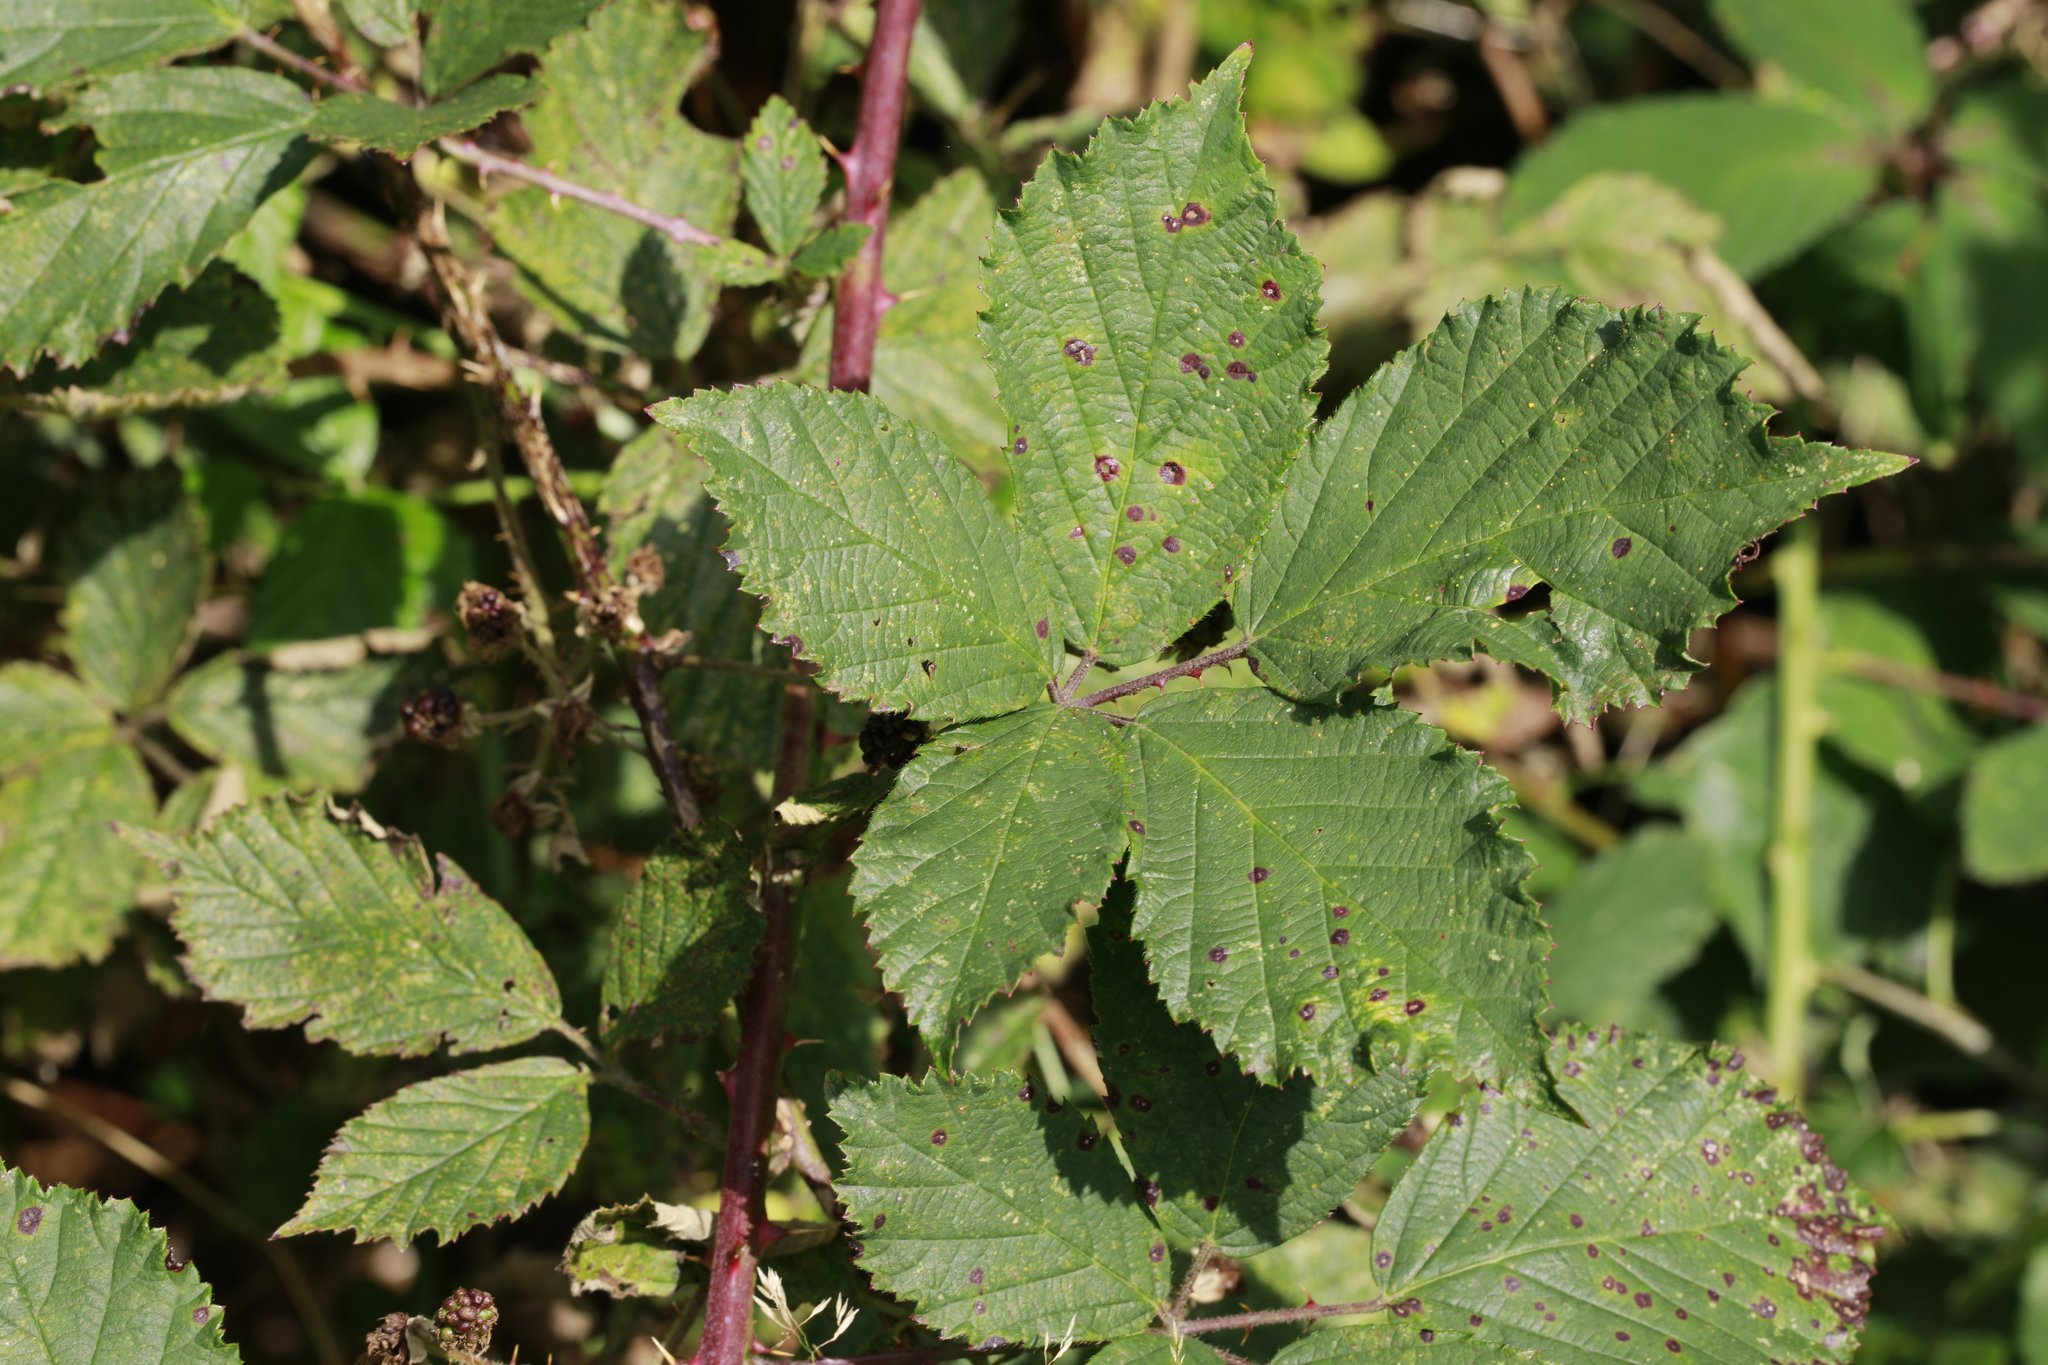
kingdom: Fungi
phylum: Basidiomycota
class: Pucciniomycetes
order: Pucciniales
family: Phragmidiaceae
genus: Phragmidium
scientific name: Phragmidium violaceum
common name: Violet bramble rust
